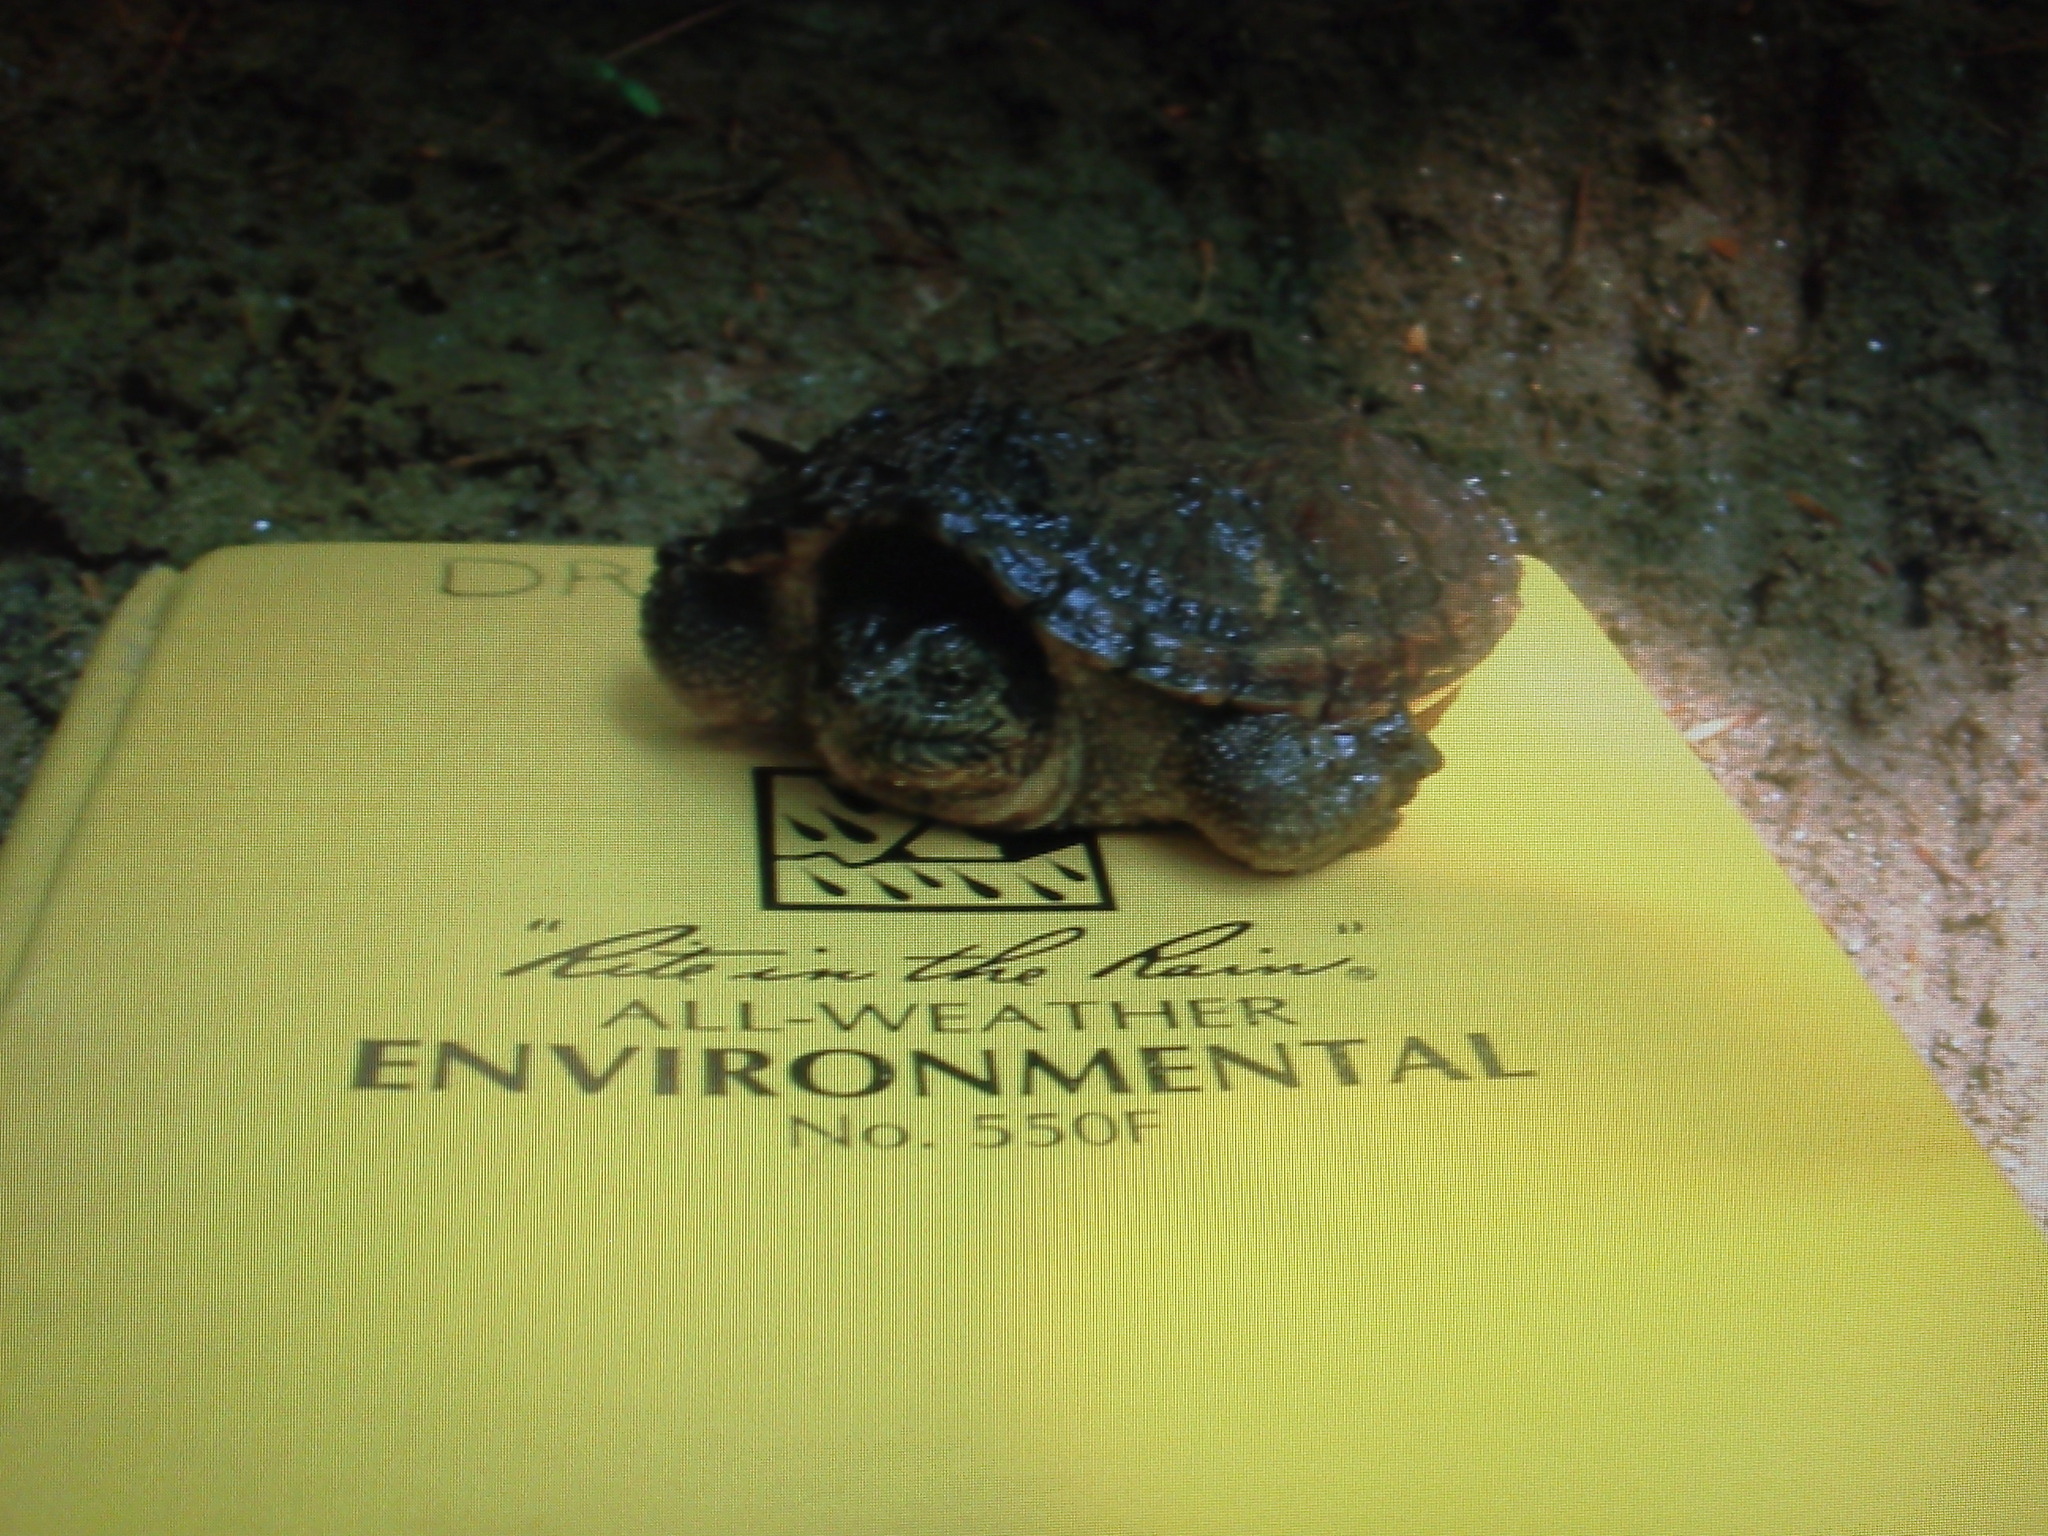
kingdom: Animalia
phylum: Chordata
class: Testudines
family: Chelydridae
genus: Chelydra
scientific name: Chelydra serpentina
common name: Common snapping turtle
